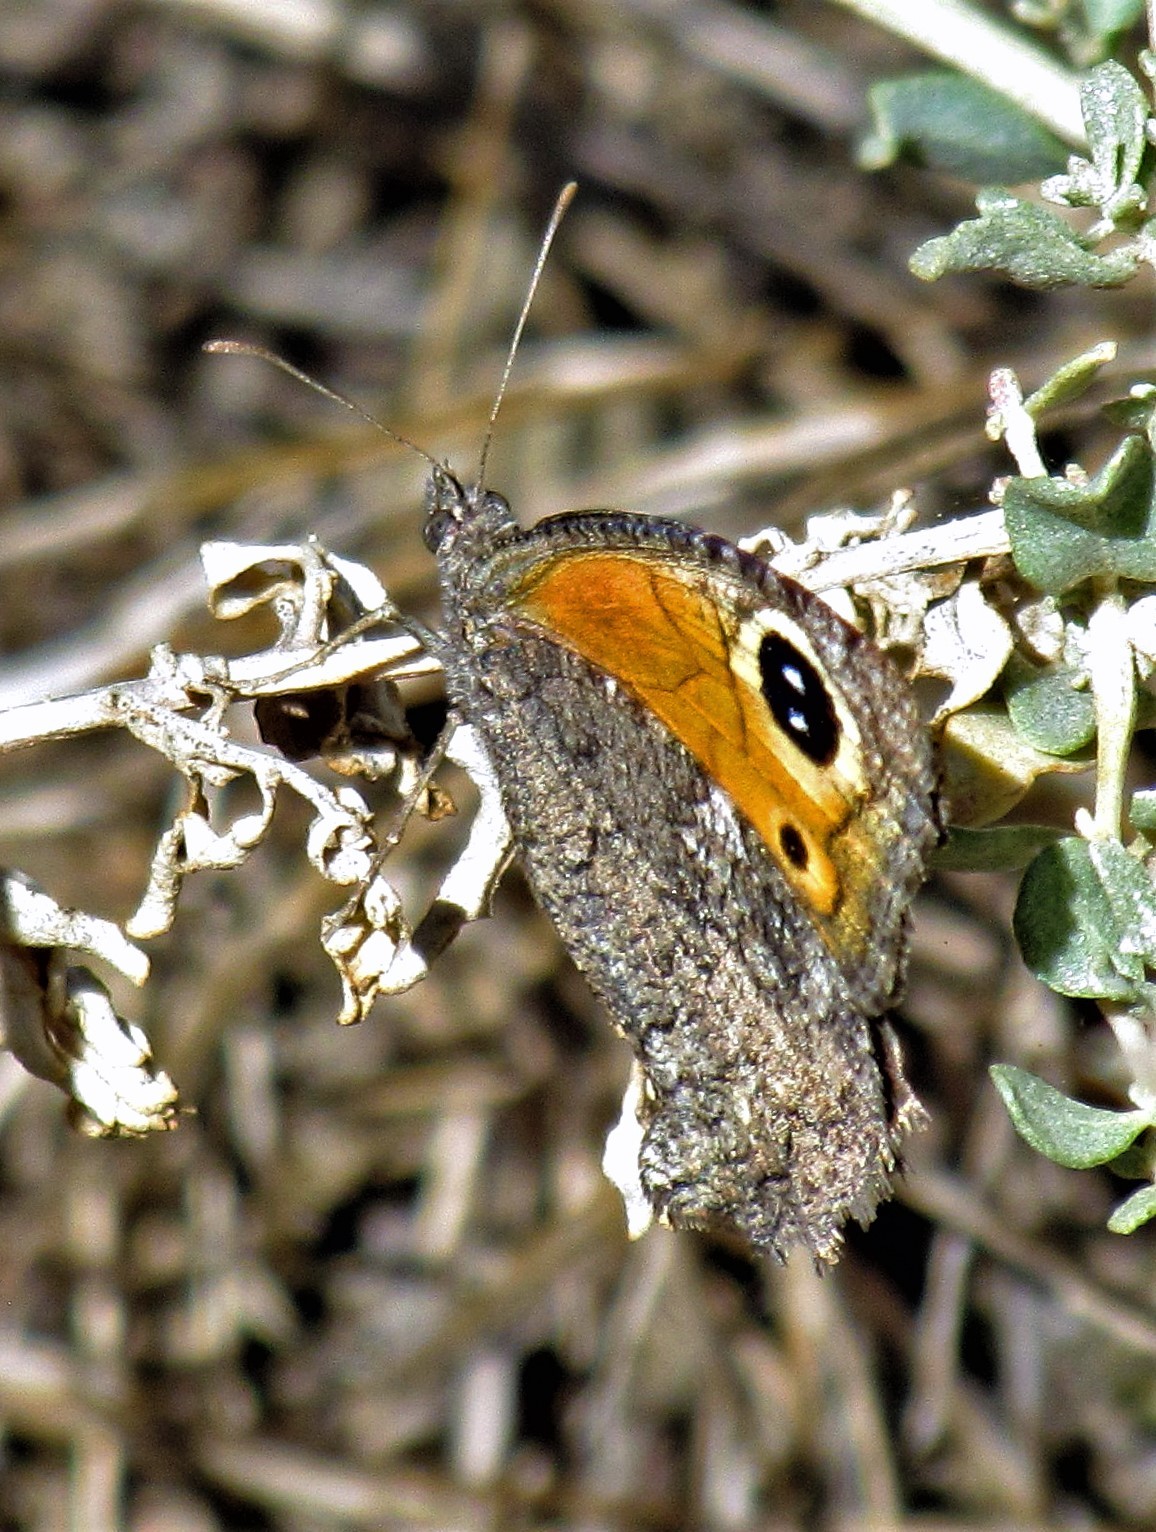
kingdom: Animalia
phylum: Arthropoda
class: Insecta
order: Lepidoptera
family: Nymphalidae
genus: Haywardella
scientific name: Haywardella edmondsii
